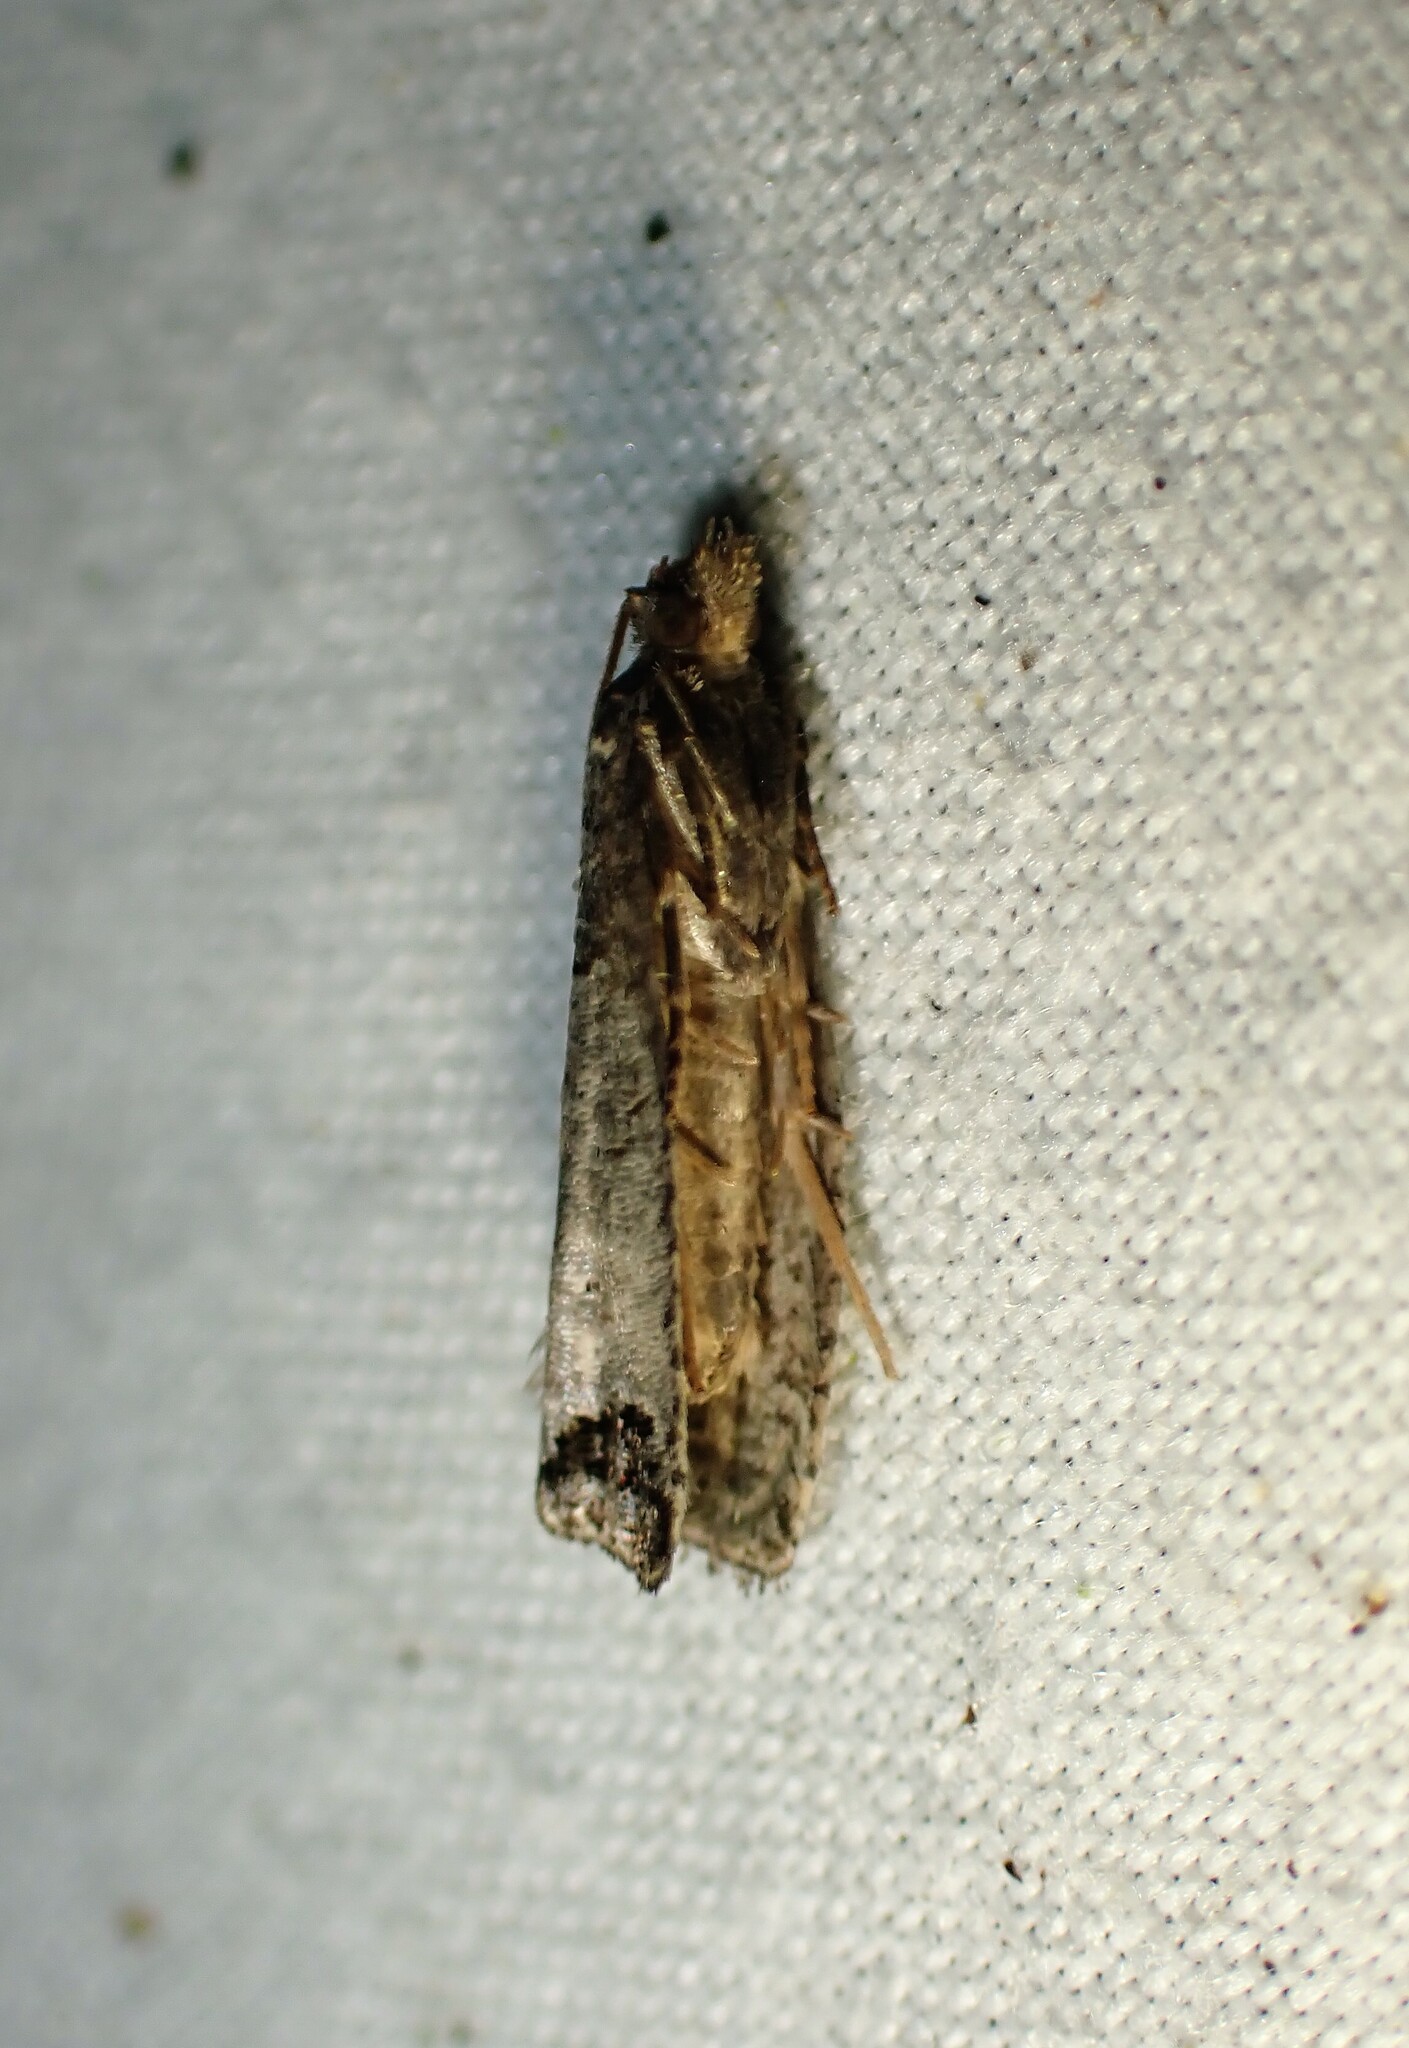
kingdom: Animalia
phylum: Arthropoda
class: Insecta
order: Lepidoptera
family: Tortricidae
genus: Notocelia
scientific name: Notocelia culminana
